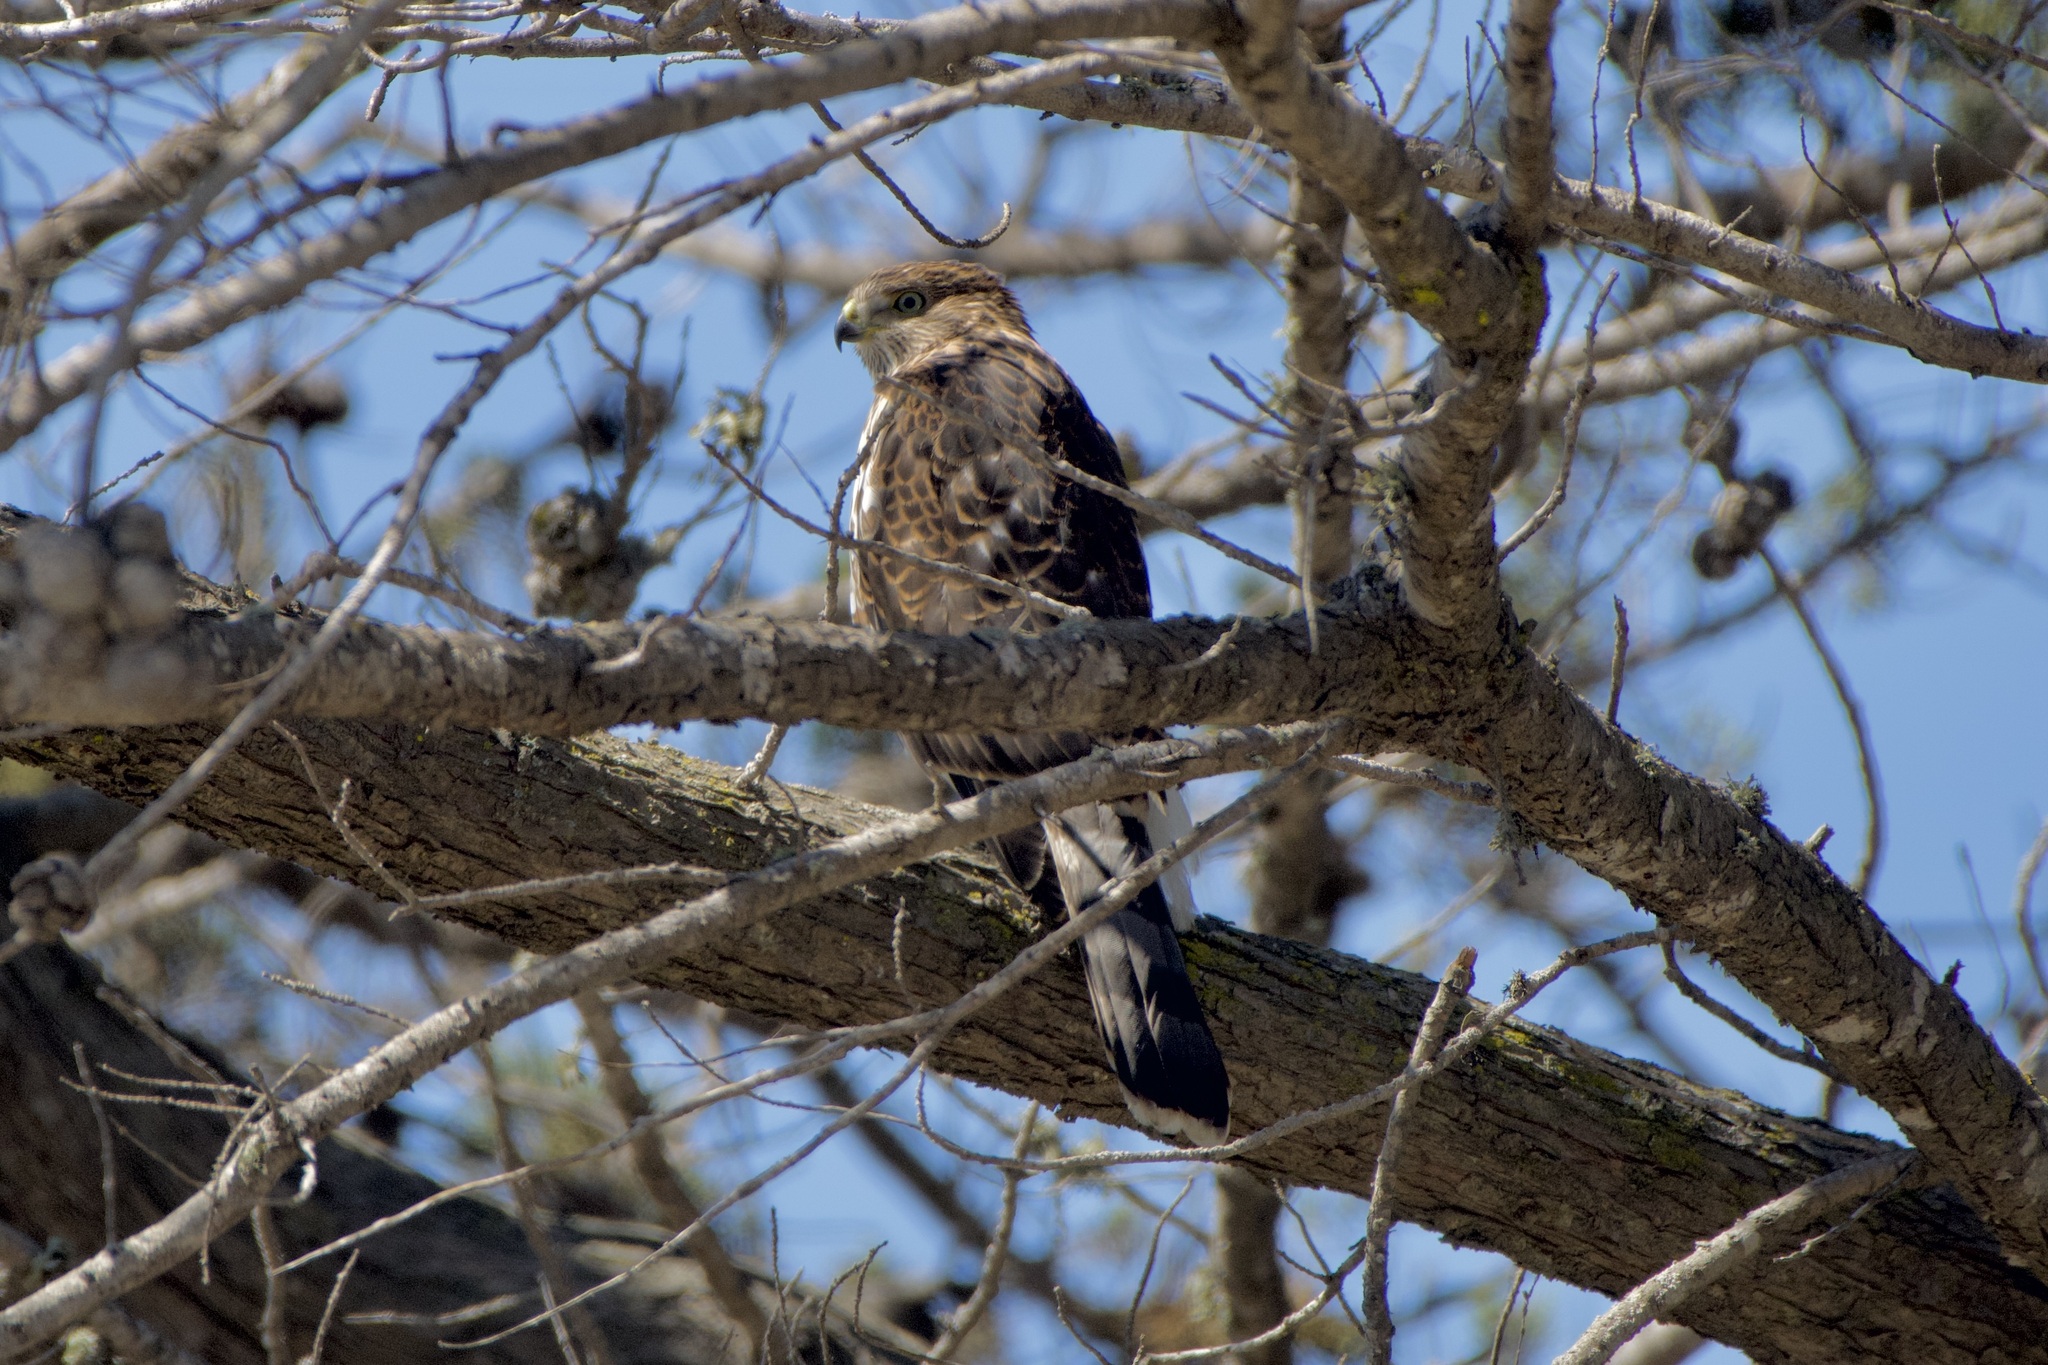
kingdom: Animalia
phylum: Chordata
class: Aves
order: Accipitriformes
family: Accipitridae
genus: Accipiter
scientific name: Accipiter cooperii
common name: Cooper's hawk
